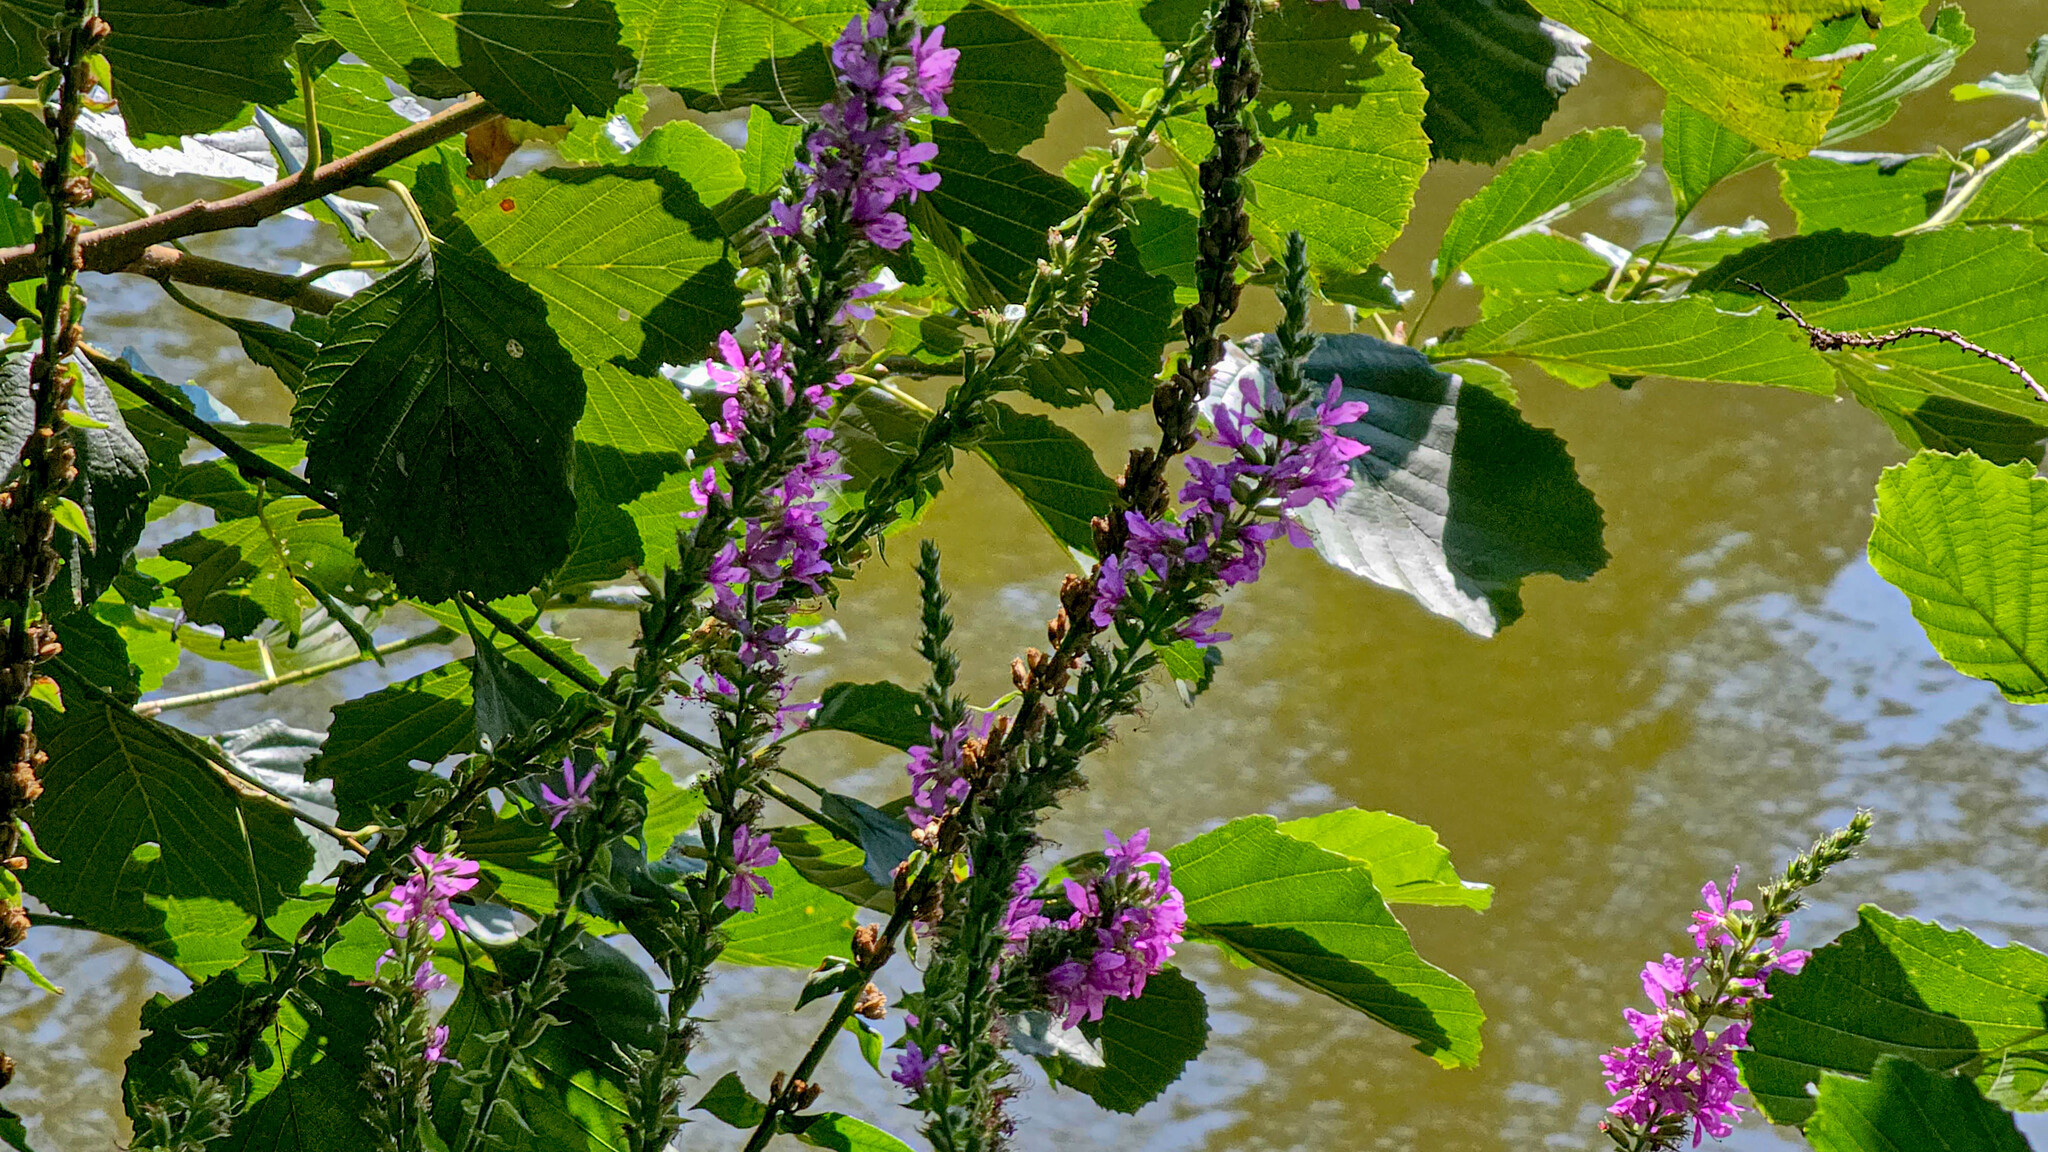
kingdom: Plantae
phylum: Tracheophyta
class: Magnoliopsida
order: Myrtales
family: Lythraceae
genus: Lythrum
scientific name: Lythrum salicaria
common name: Purple loosestrife
